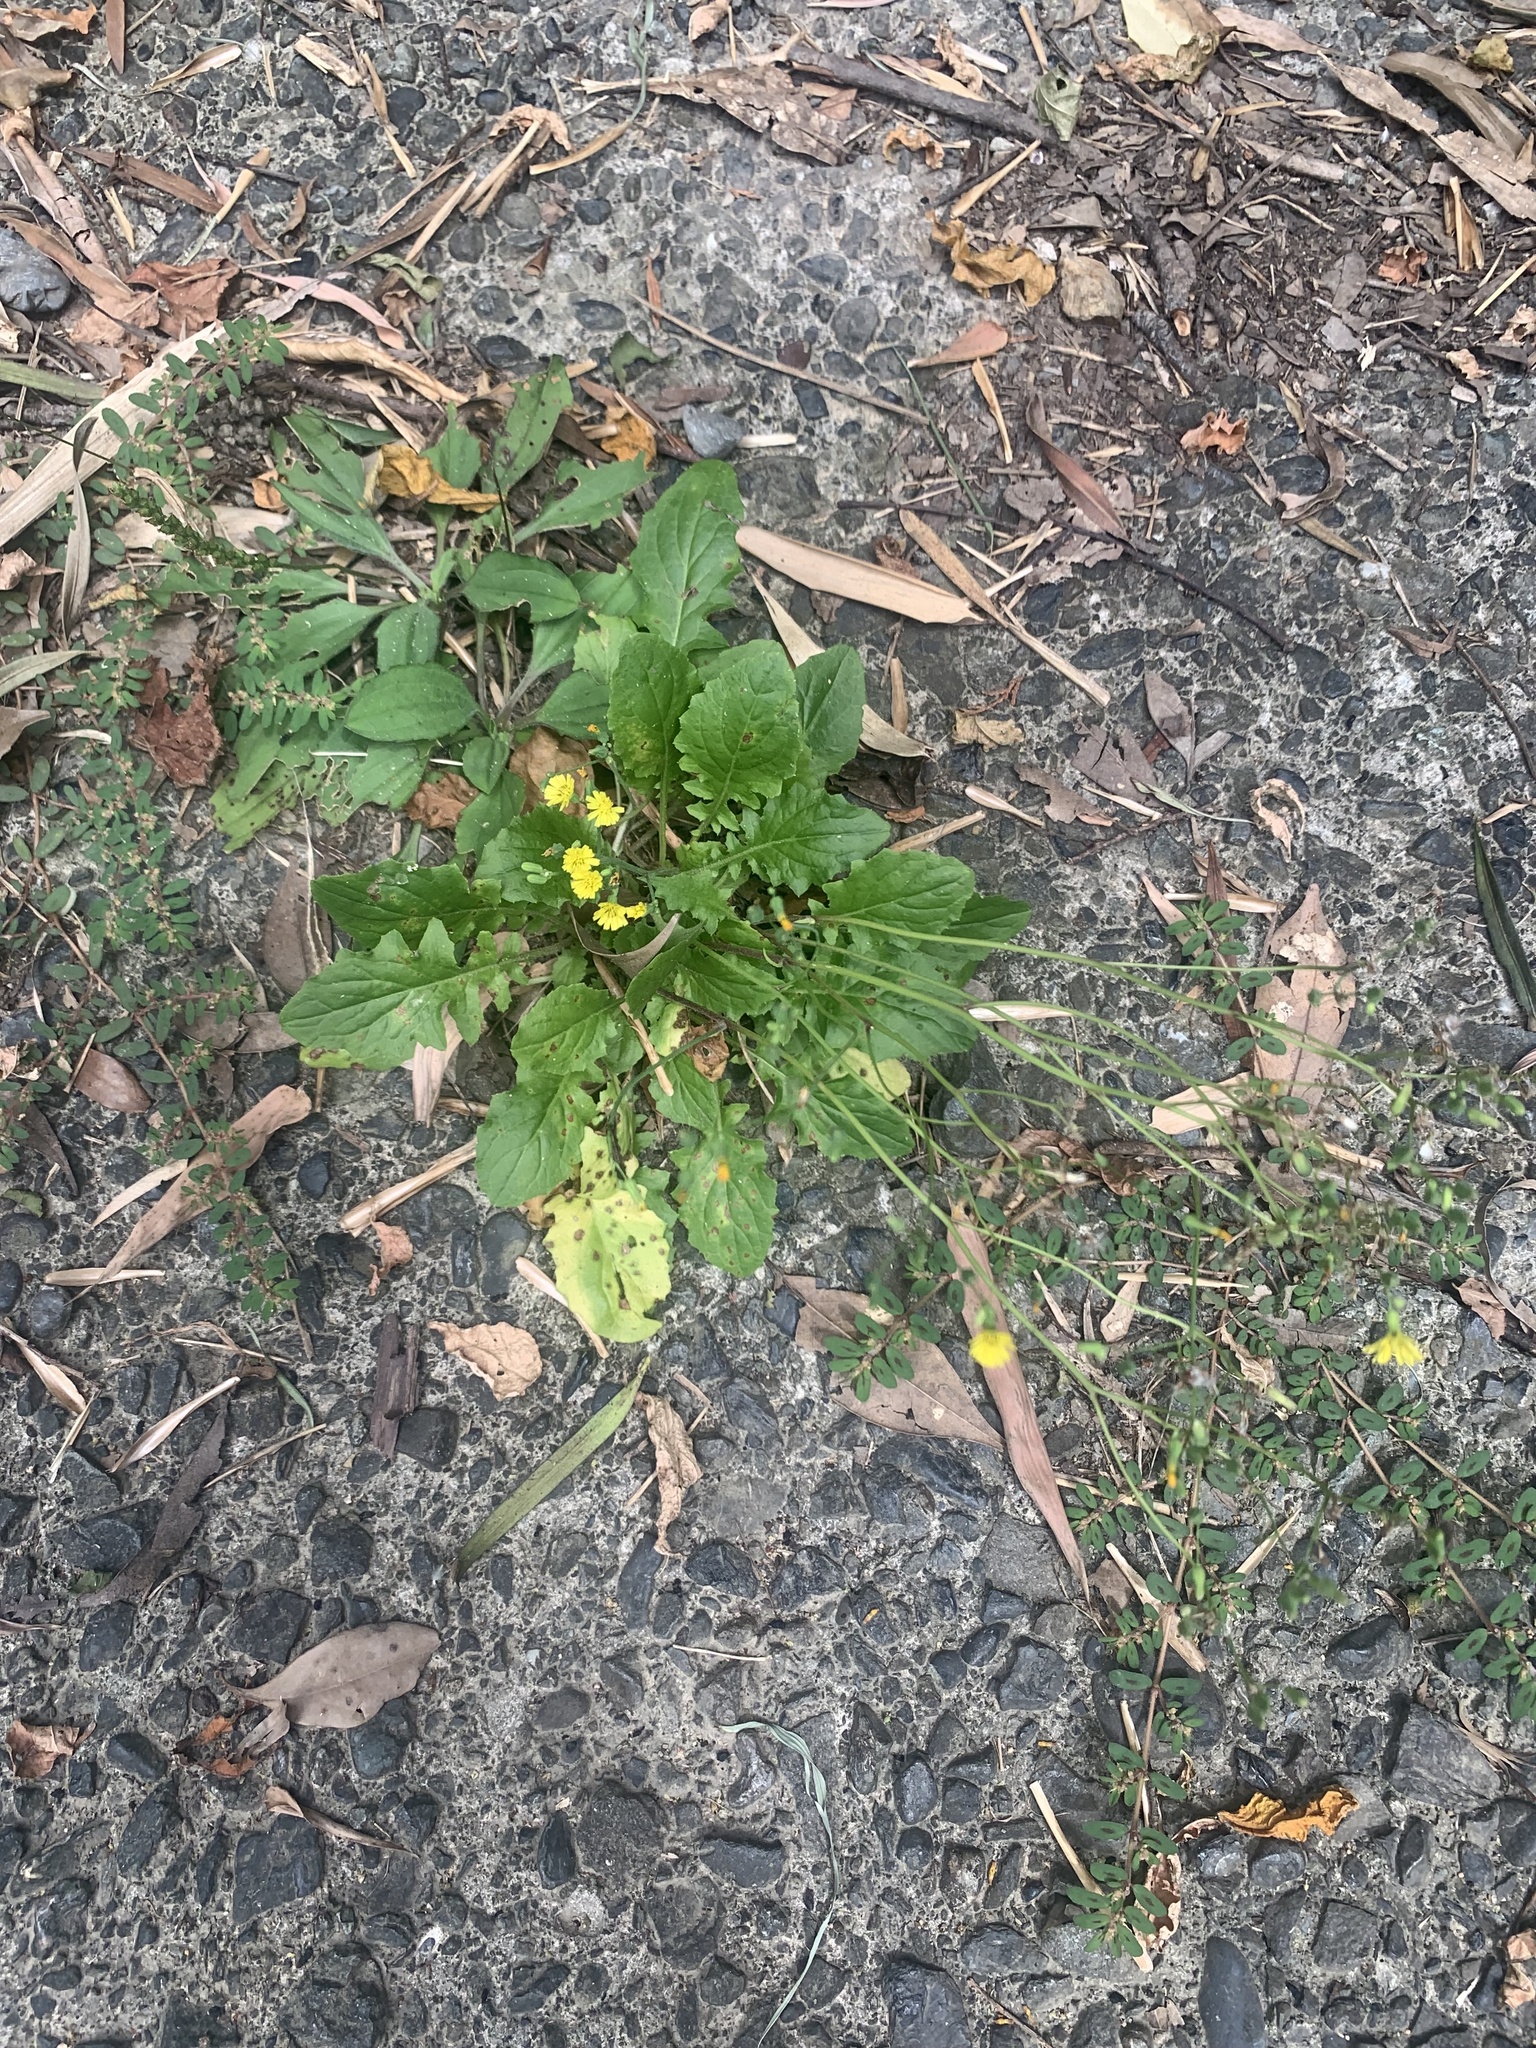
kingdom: Plantae
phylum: Tracheophyta
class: Magnoliopsida
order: Asterales
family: Asteraceae
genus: Youngia
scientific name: Youngia japonica
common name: Oriental false hawksbeard
